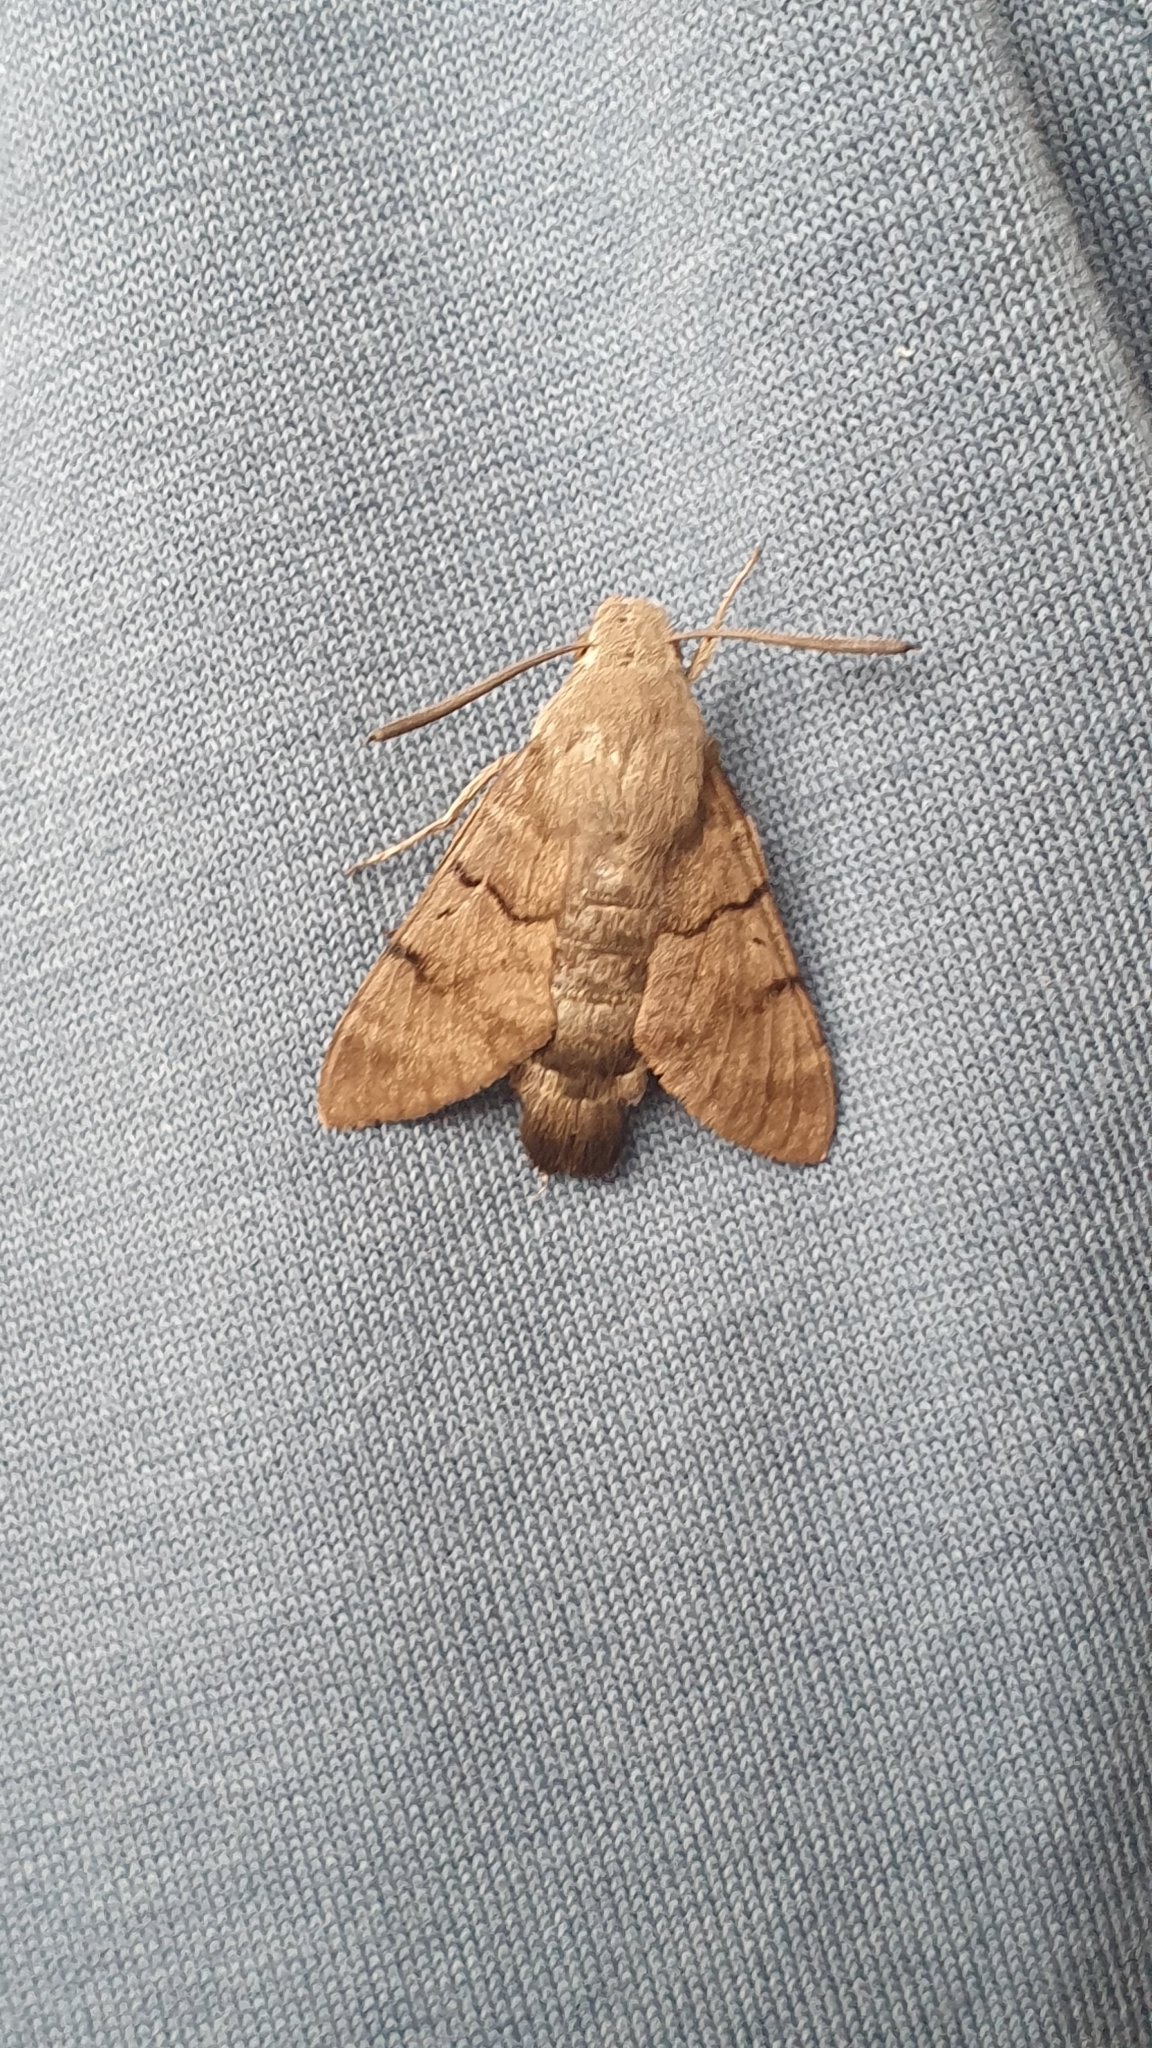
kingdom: Animalia
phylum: Arthropoda
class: Insecta
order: Lepidoptera
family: Sphingidae
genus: Macroglossum
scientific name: Macroglossum stellatarum
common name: Humming-bird hawk-moth
